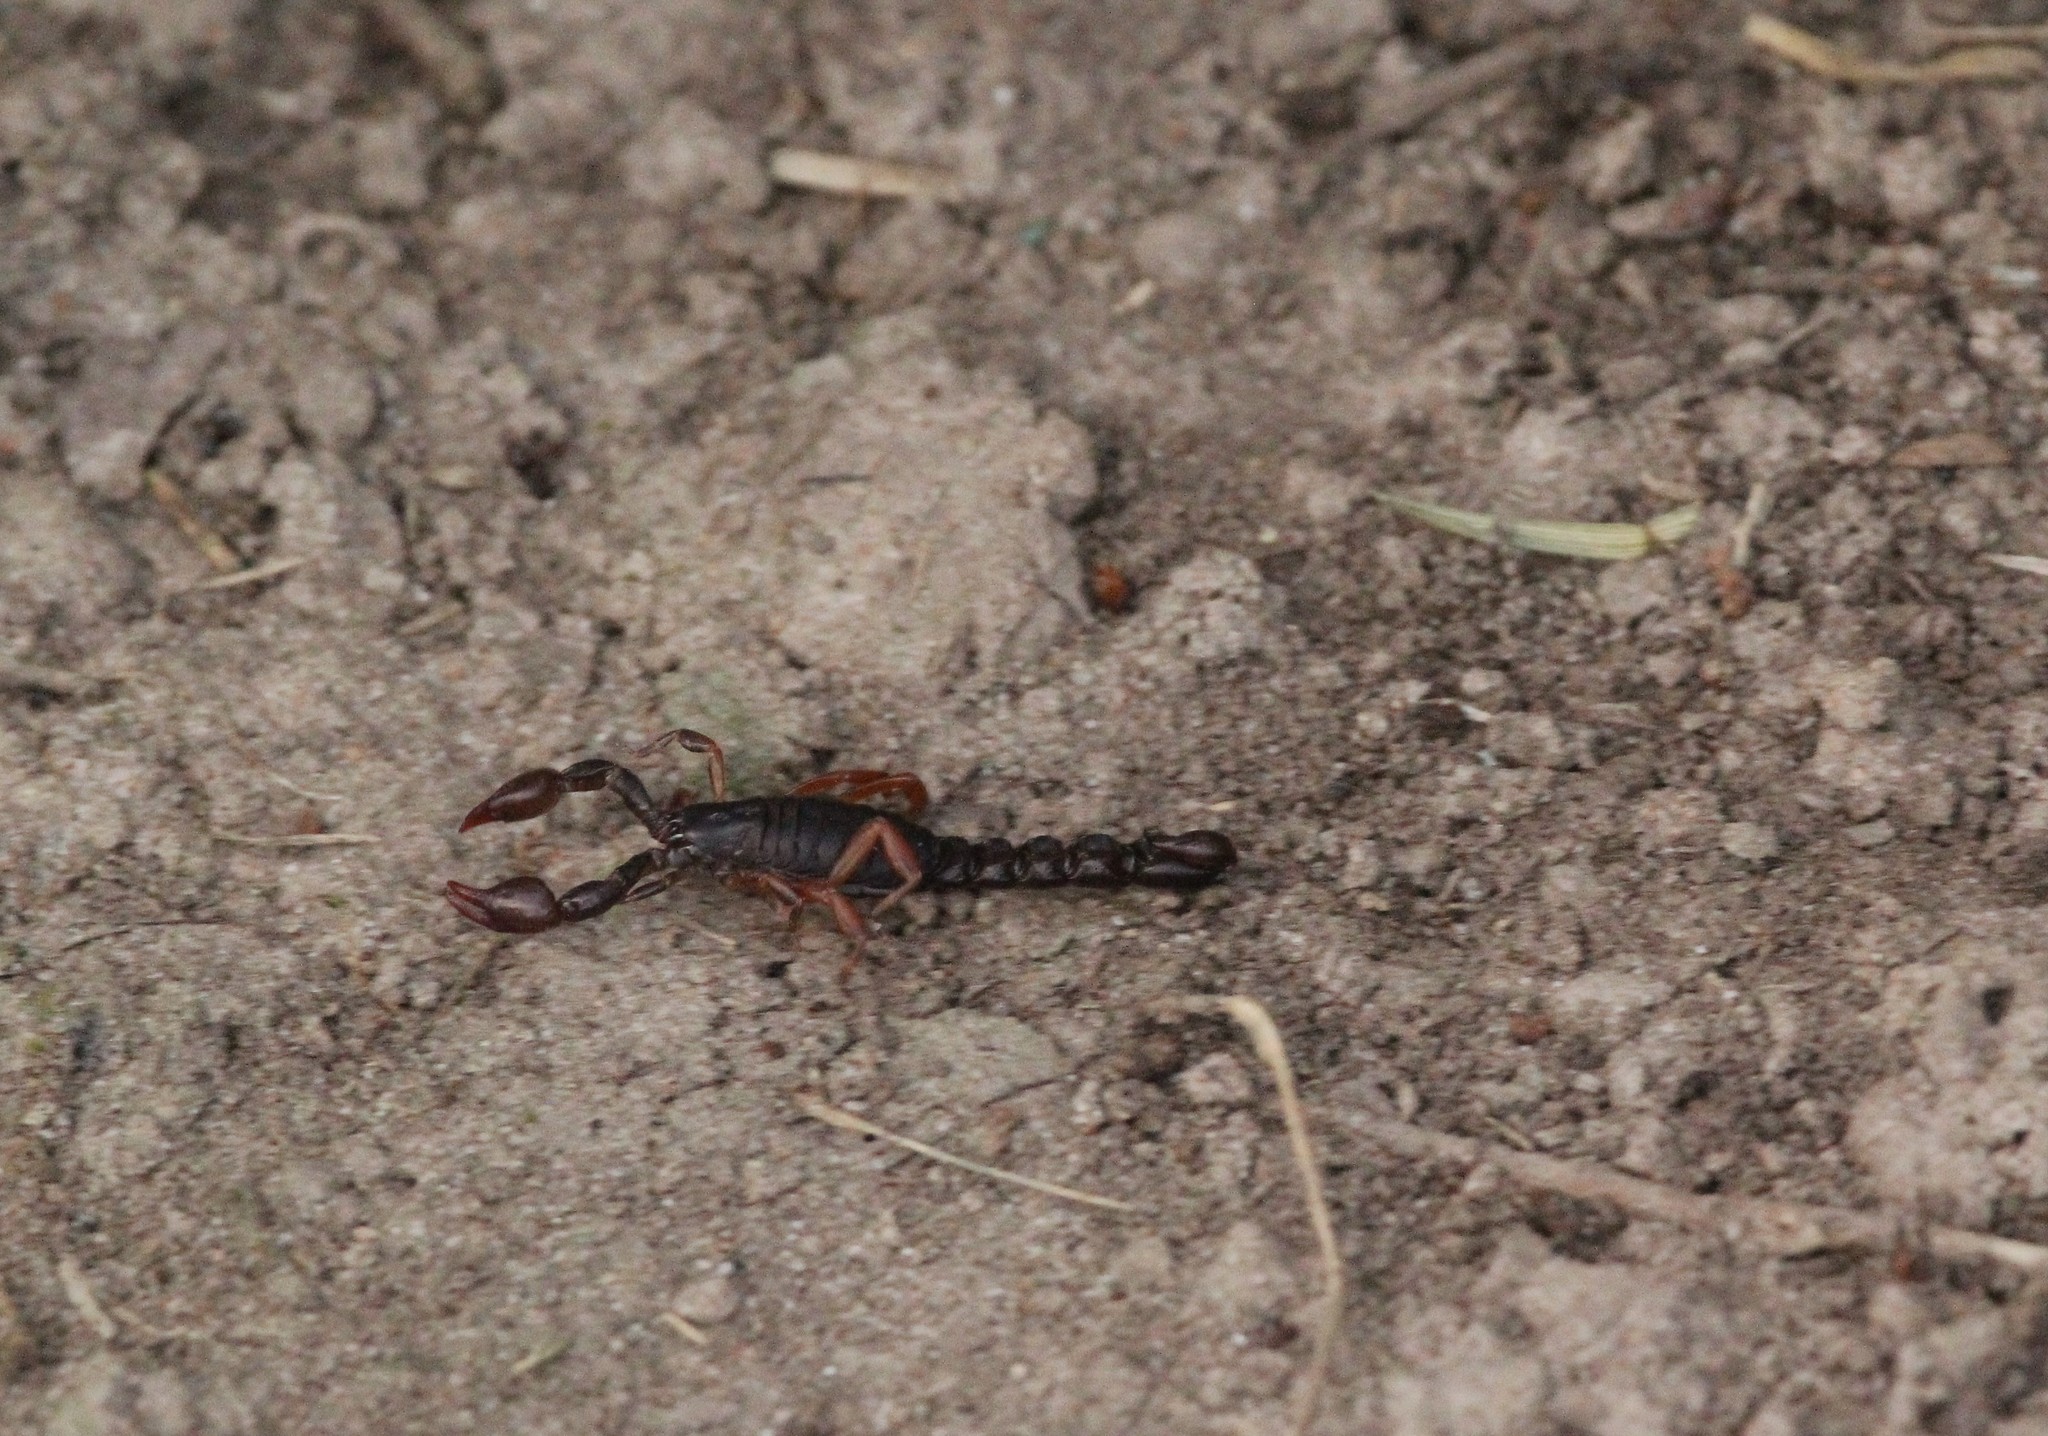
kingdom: Animalia
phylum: Arthropoda
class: Arachnida
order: Scorpiones
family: Bothriuridae
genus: Bothriurus
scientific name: Bothriurus rochensis
